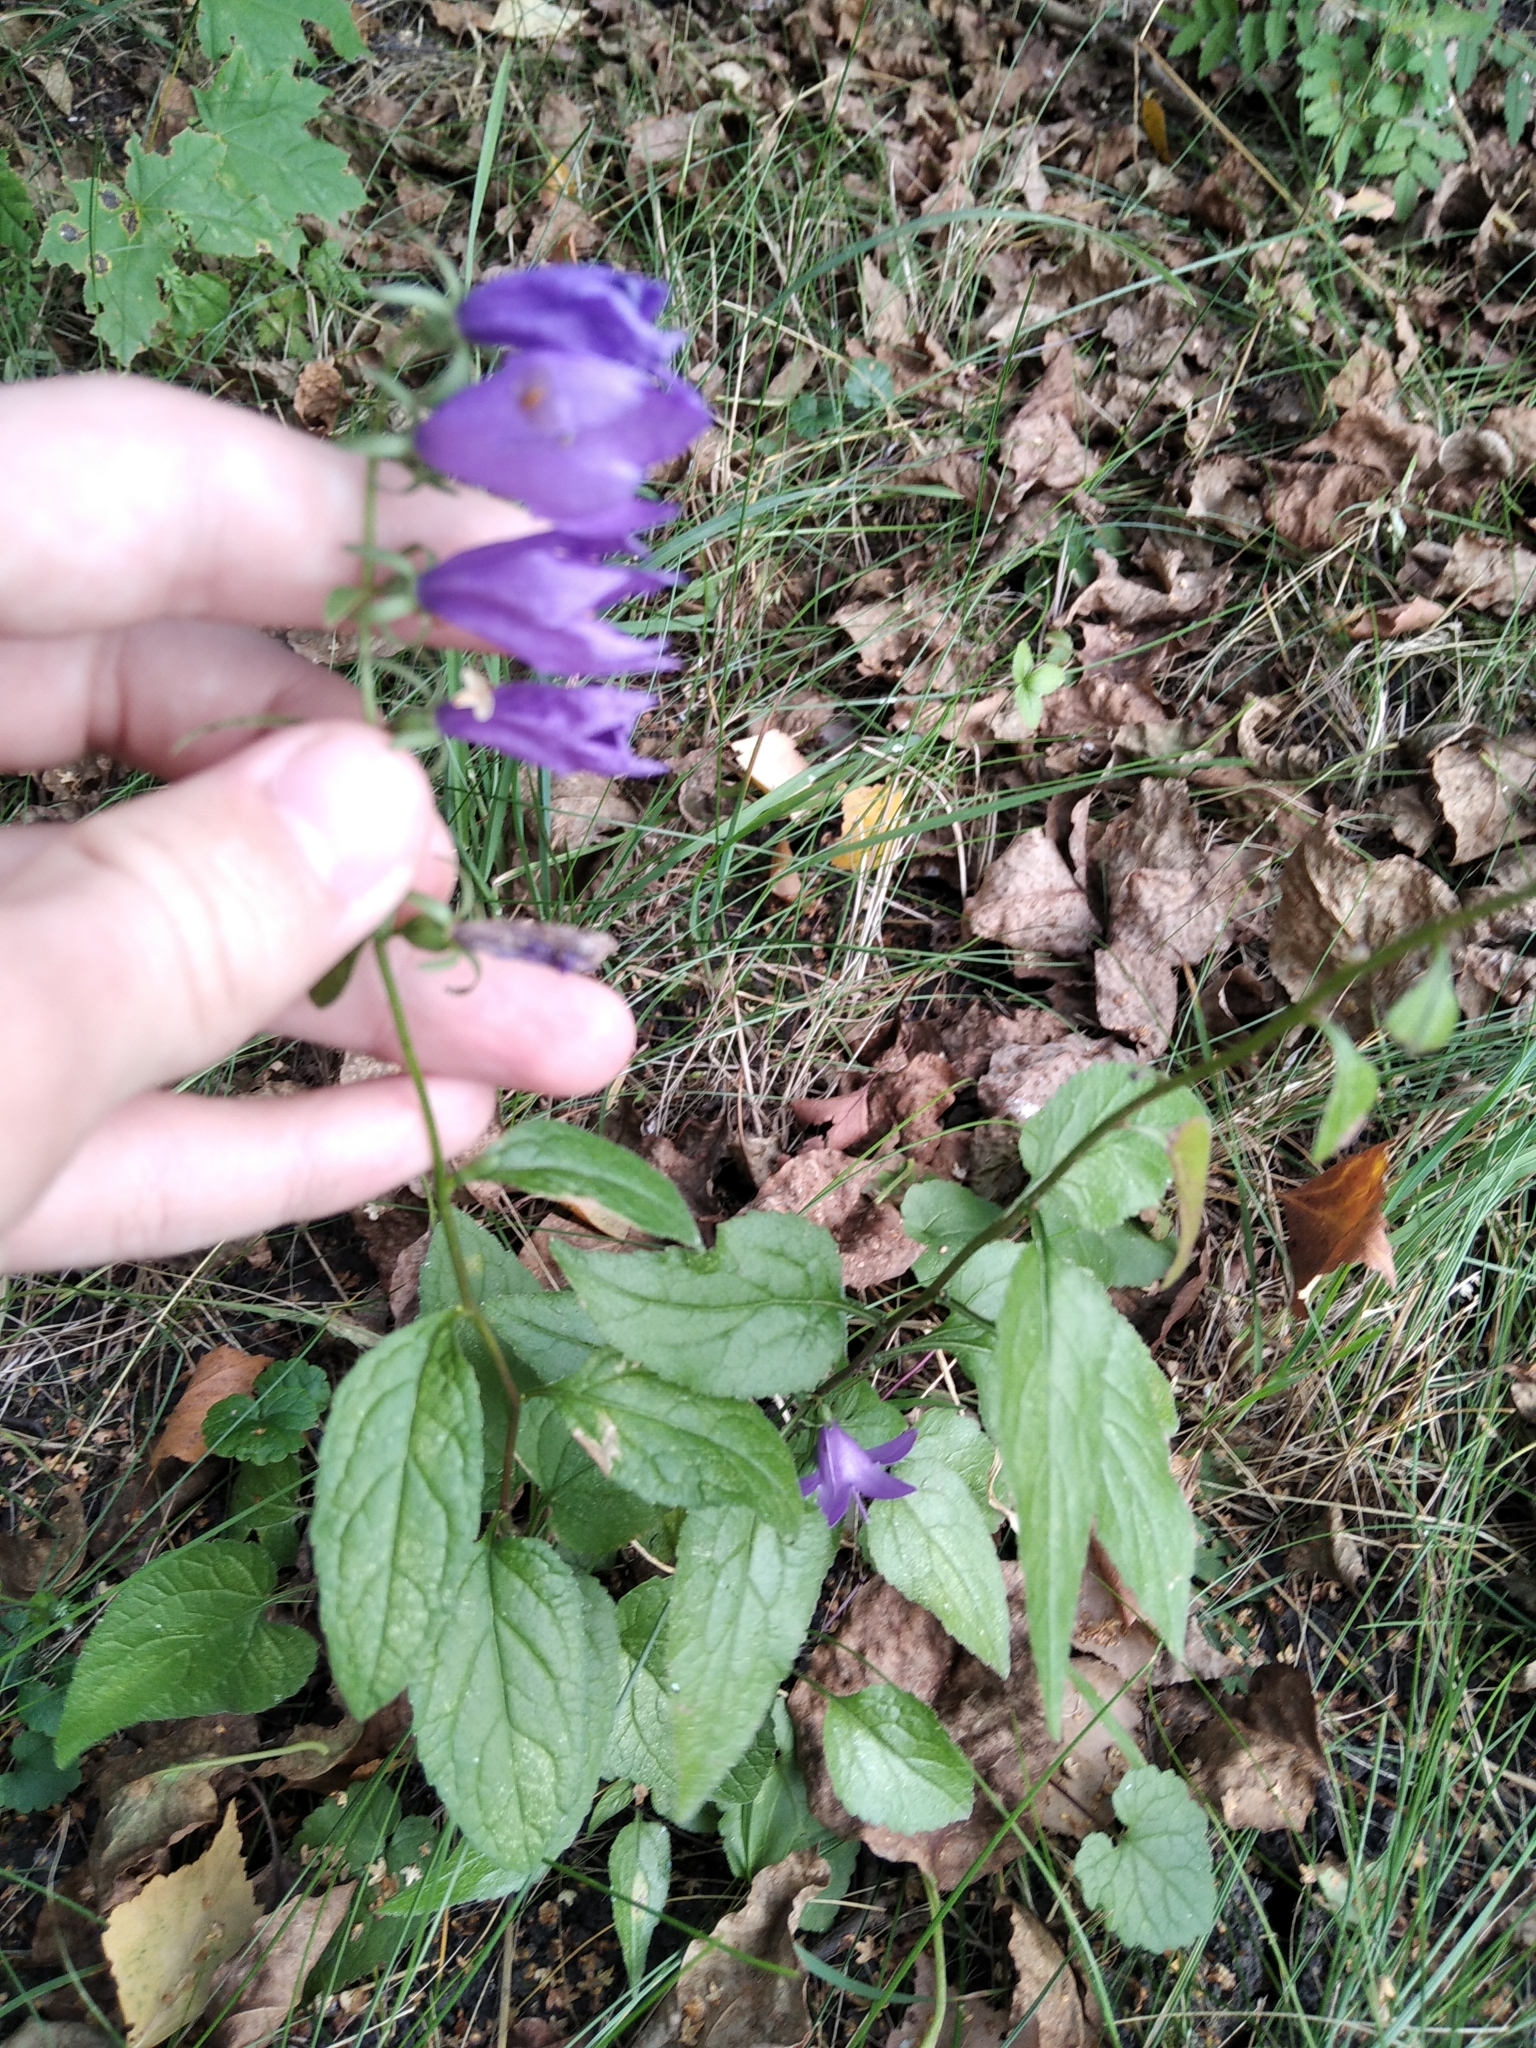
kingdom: Plantae
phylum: Tracheophyta
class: Magnoliopsida
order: Asterales
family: Campanulaceae
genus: Campanula
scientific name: Campanula rapunculoides
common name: Creeping bellflower
